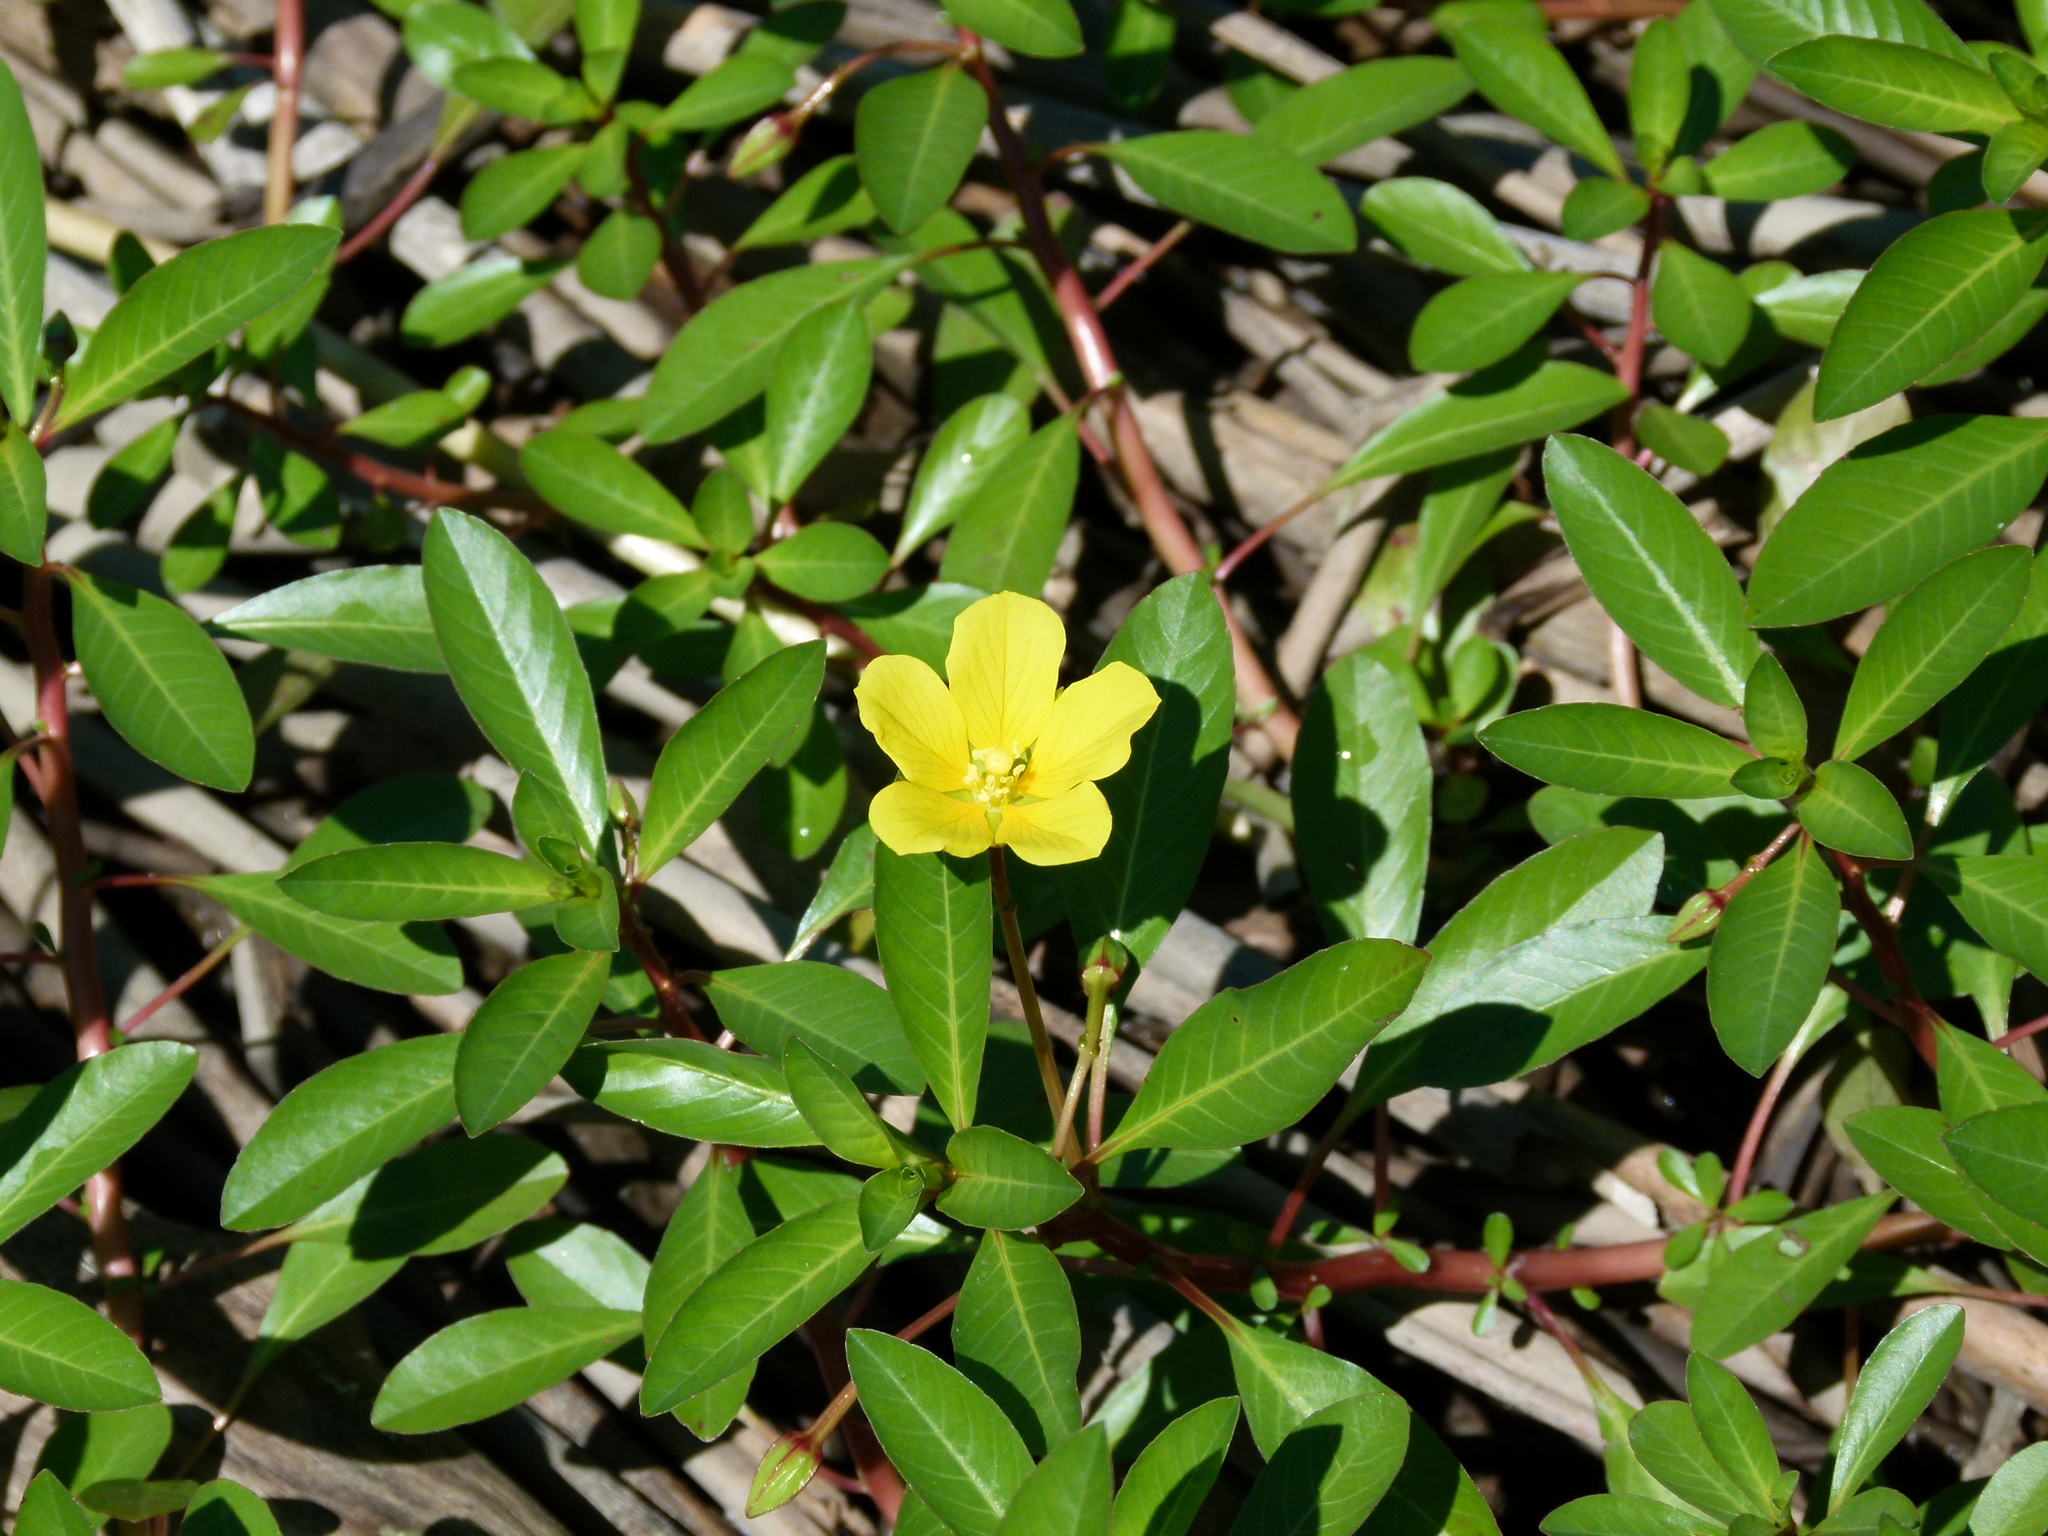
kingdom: Plantae
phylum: Tracheophyta
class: Magnoliopsida
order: Myrtales
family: Onagraceae
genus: Ludwigia
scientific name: Ludwigia peploides
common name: Floating primrose-willow
